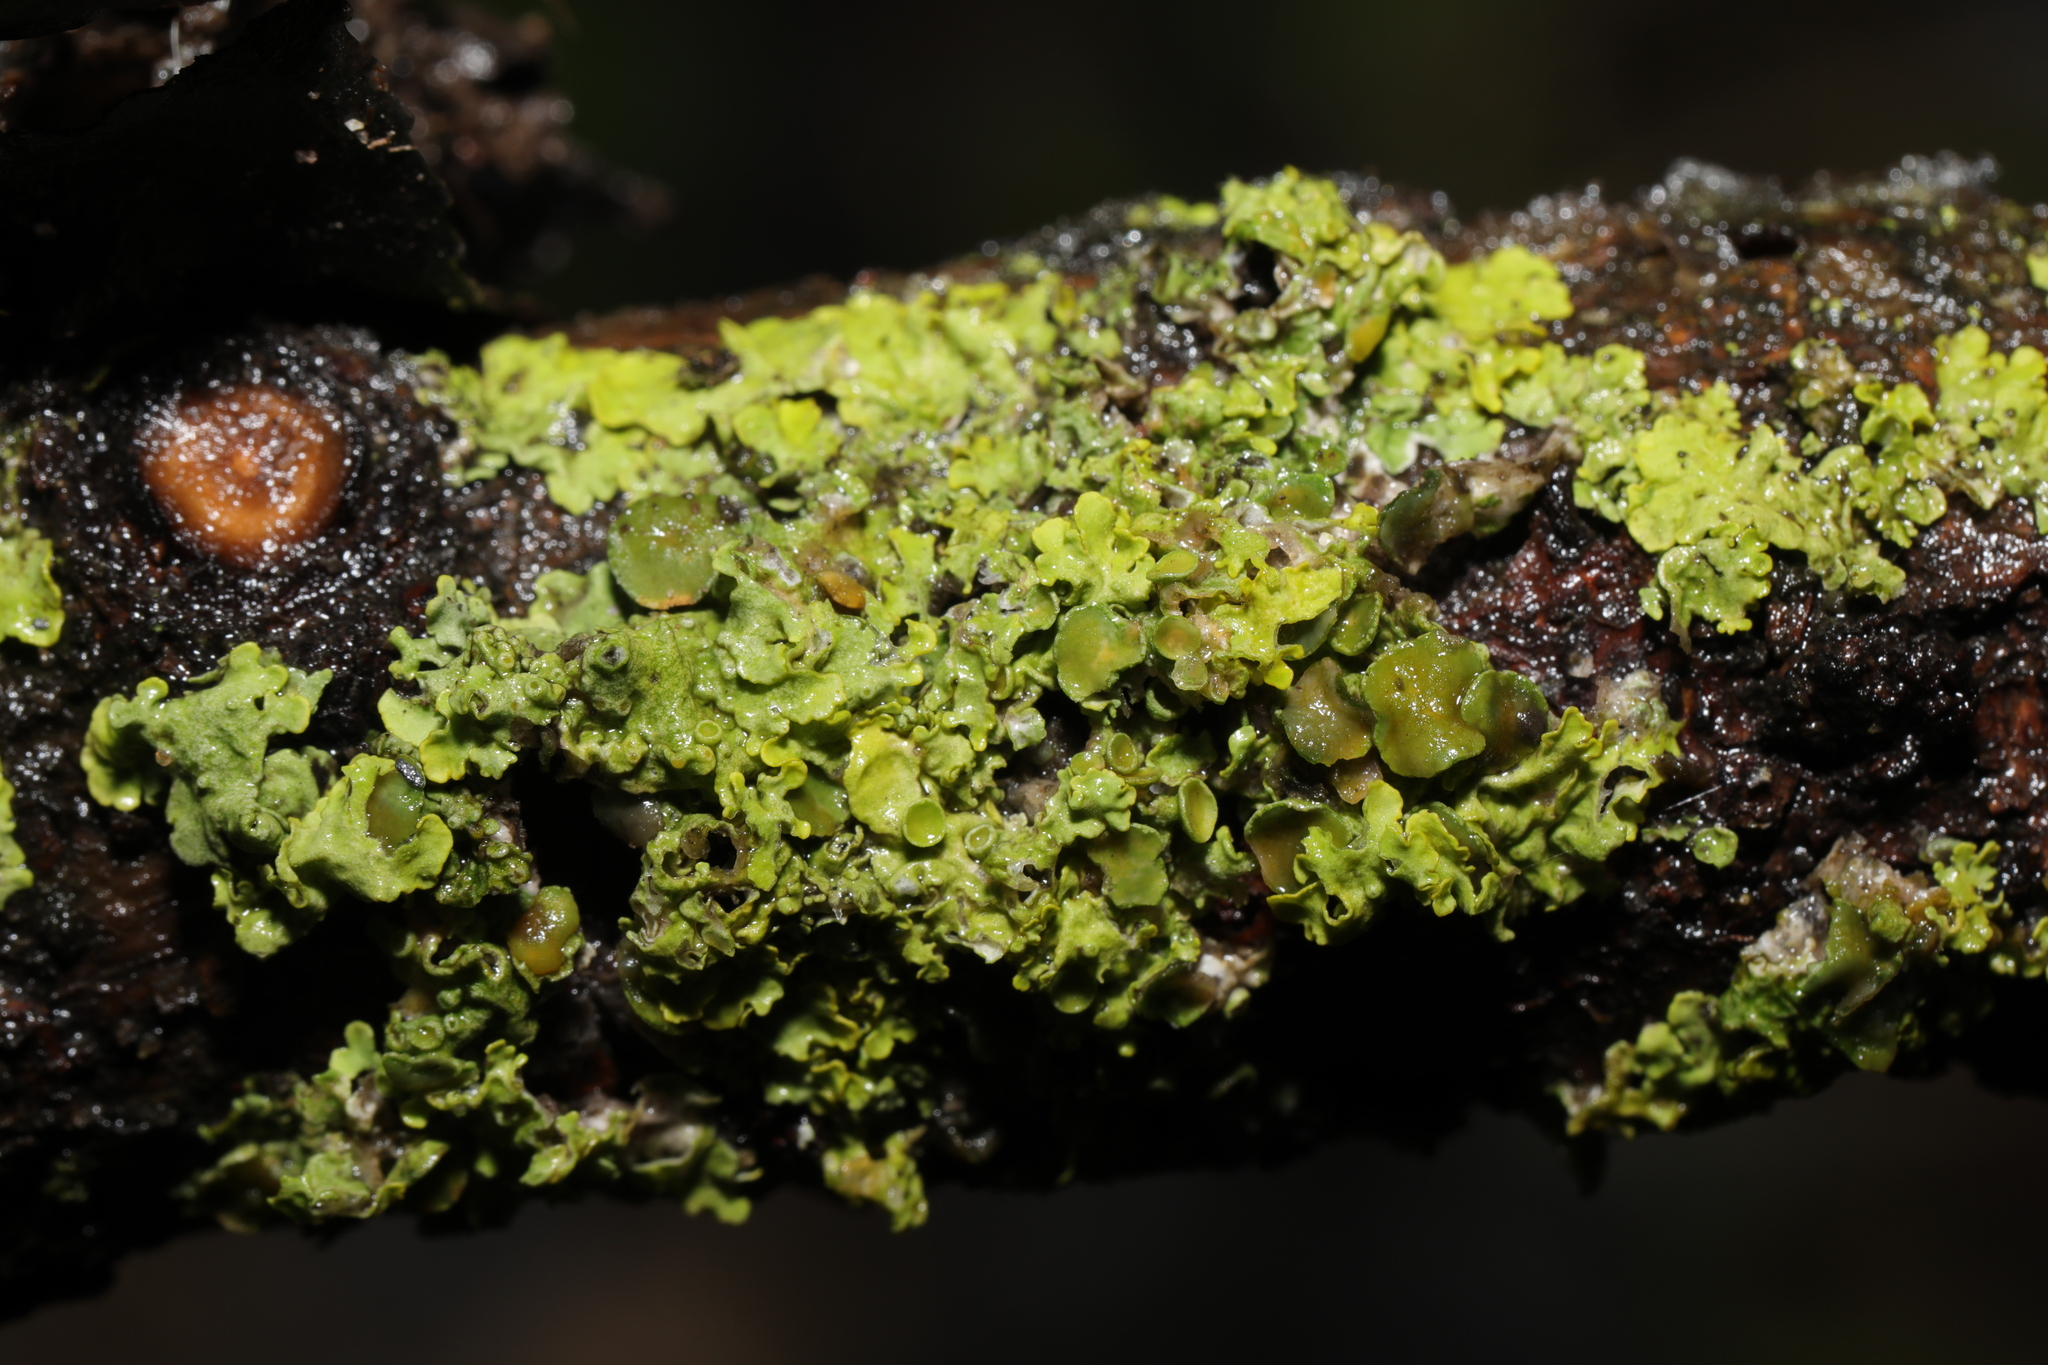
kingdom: Fungi
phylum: Ascomycota
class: Lecanoromycetes
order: Teloschistales
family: Teloschistaceae
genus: Xanthoria
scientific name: Xanthoria parietina
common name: Common orange lichen
